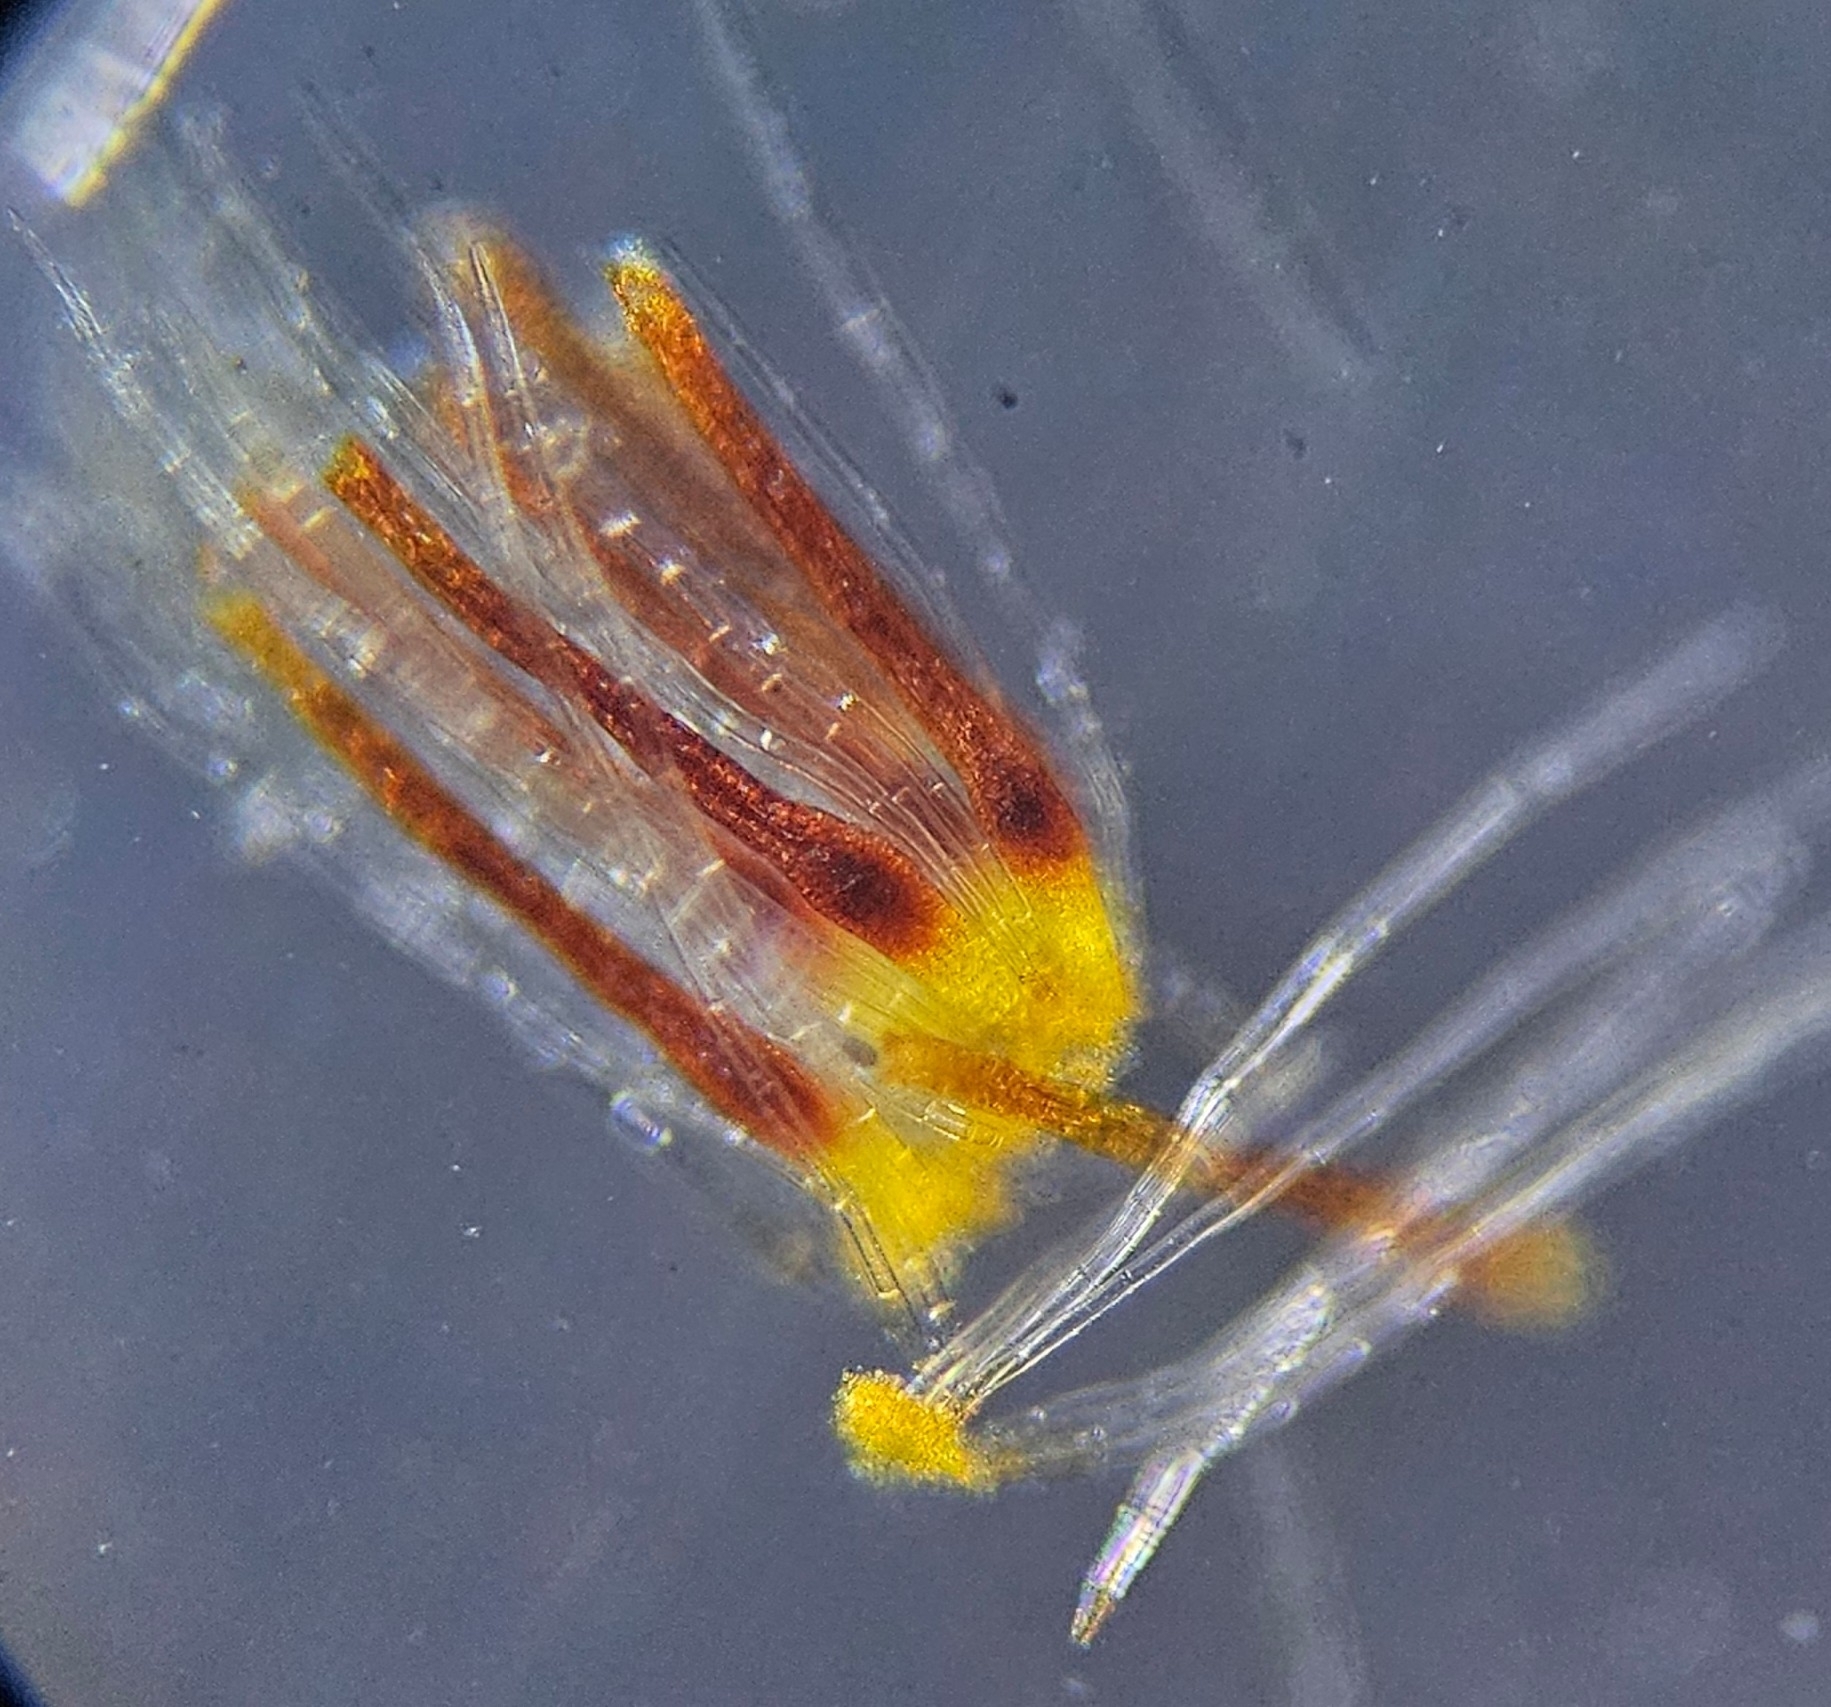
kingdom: Plantae
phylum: Bryophyta
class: Bryopsida
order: Hypnales
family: Brachytheciaceae
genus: Homalothecium
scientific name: Homalothecium lutescens
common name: Yellow feather-moss
